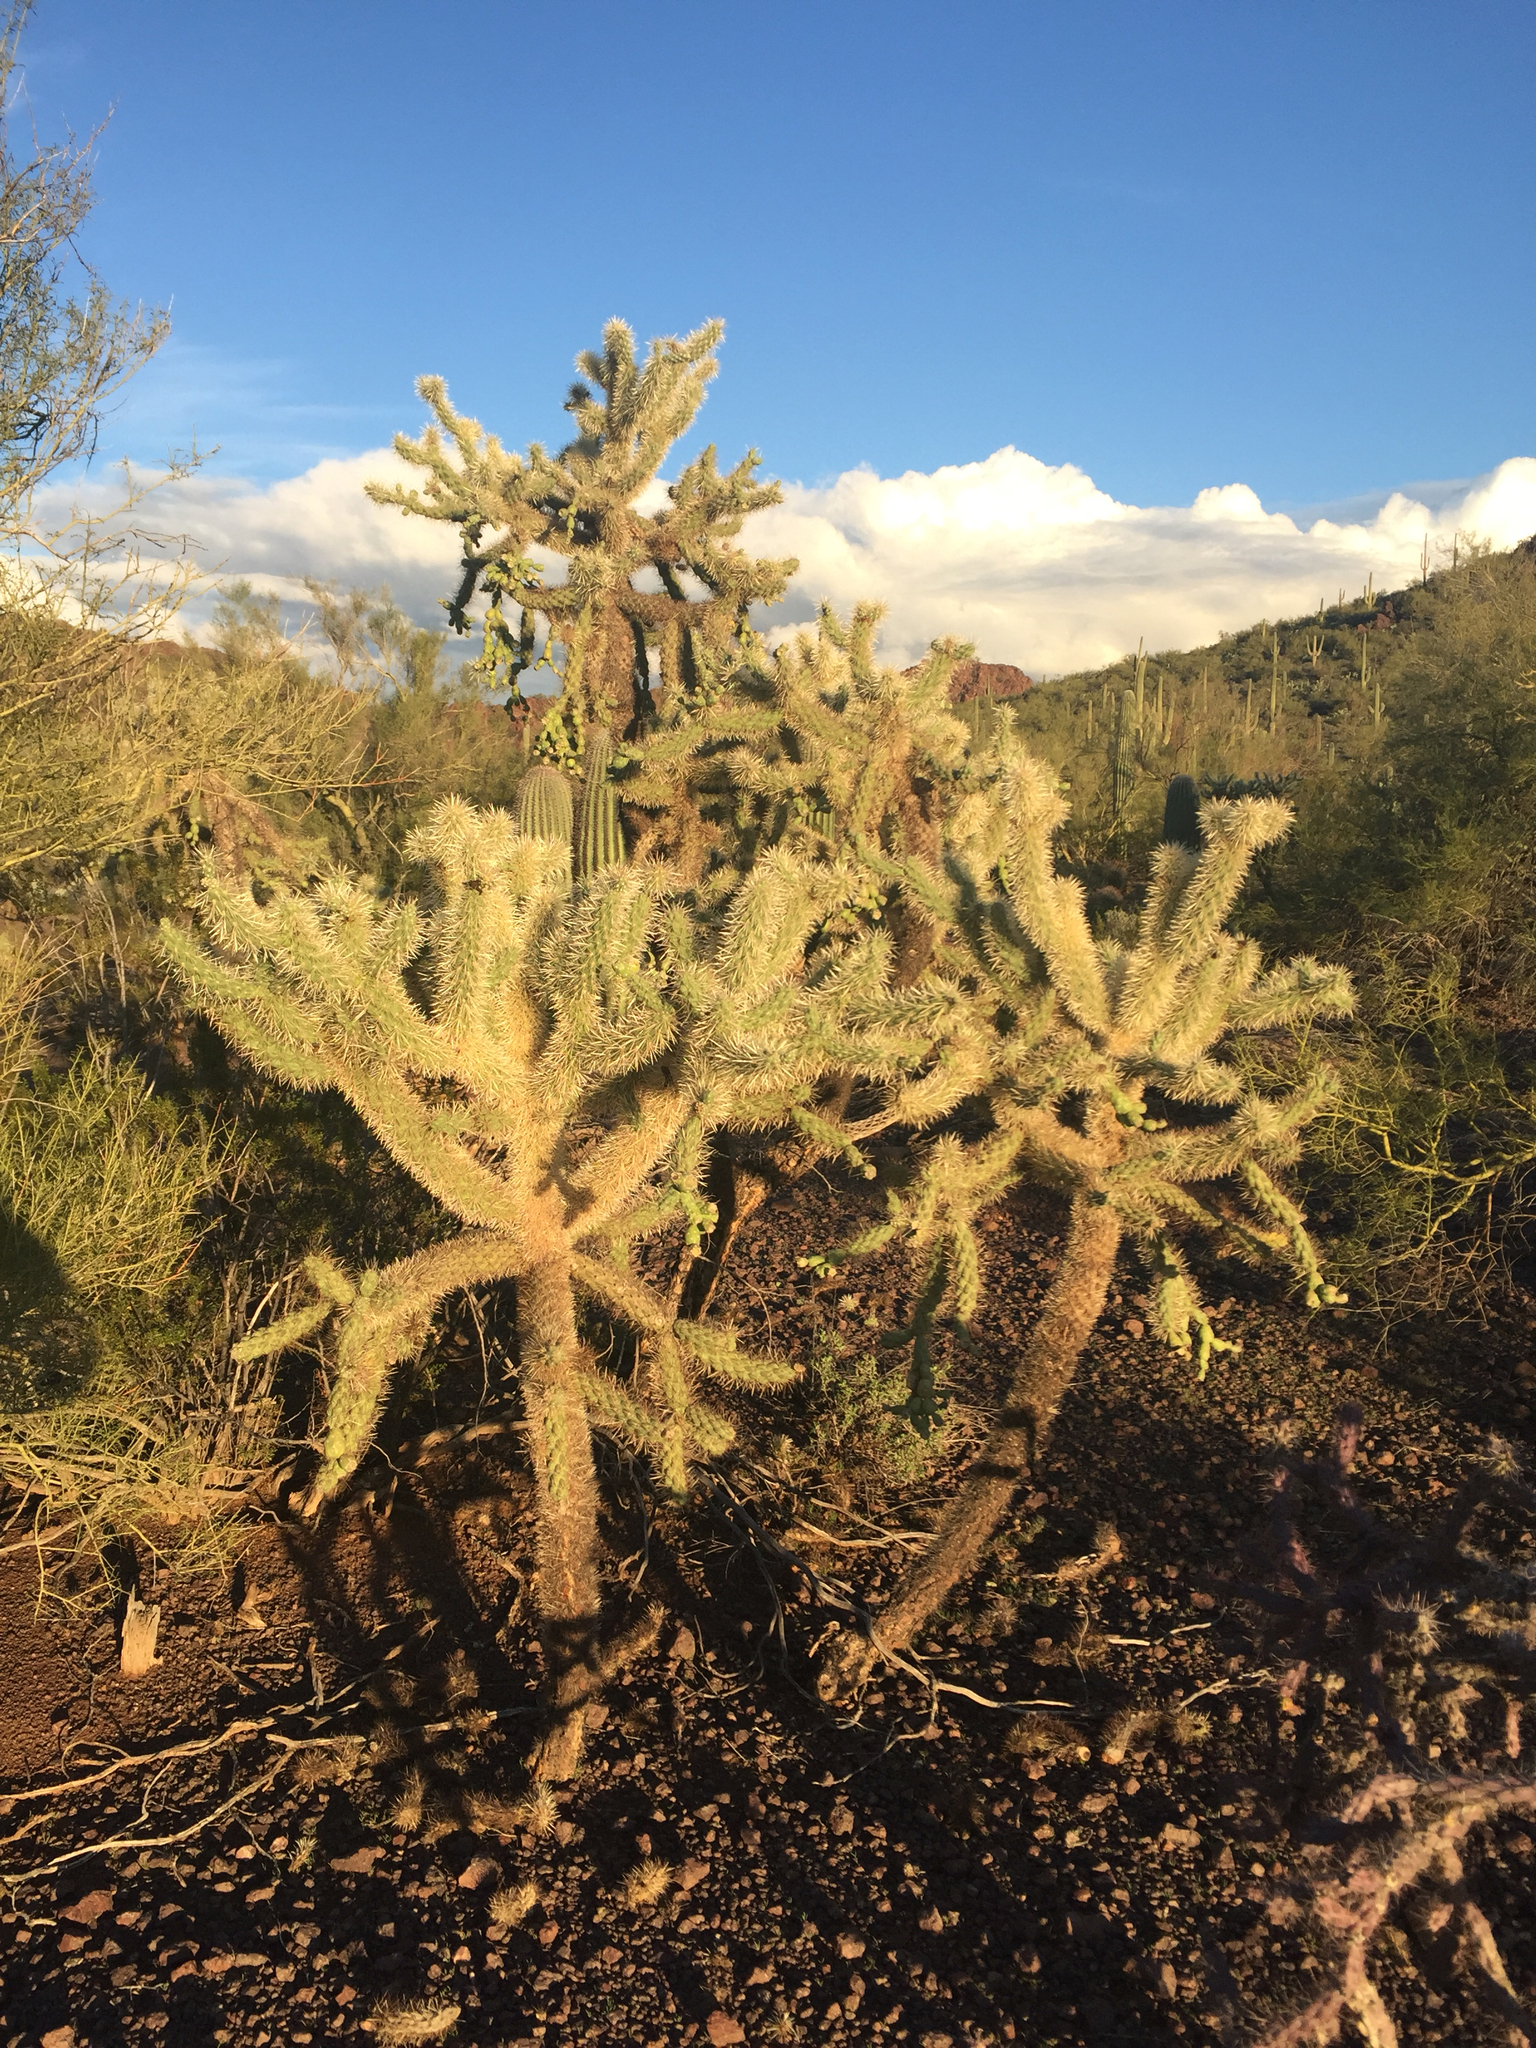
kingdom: Plantae
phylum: Tracheophyta
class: Magnoliopsida
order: Caryophyllales
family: Cactaceae
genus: Cylindropuntia
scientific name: Cylindropuntia fosbergii
